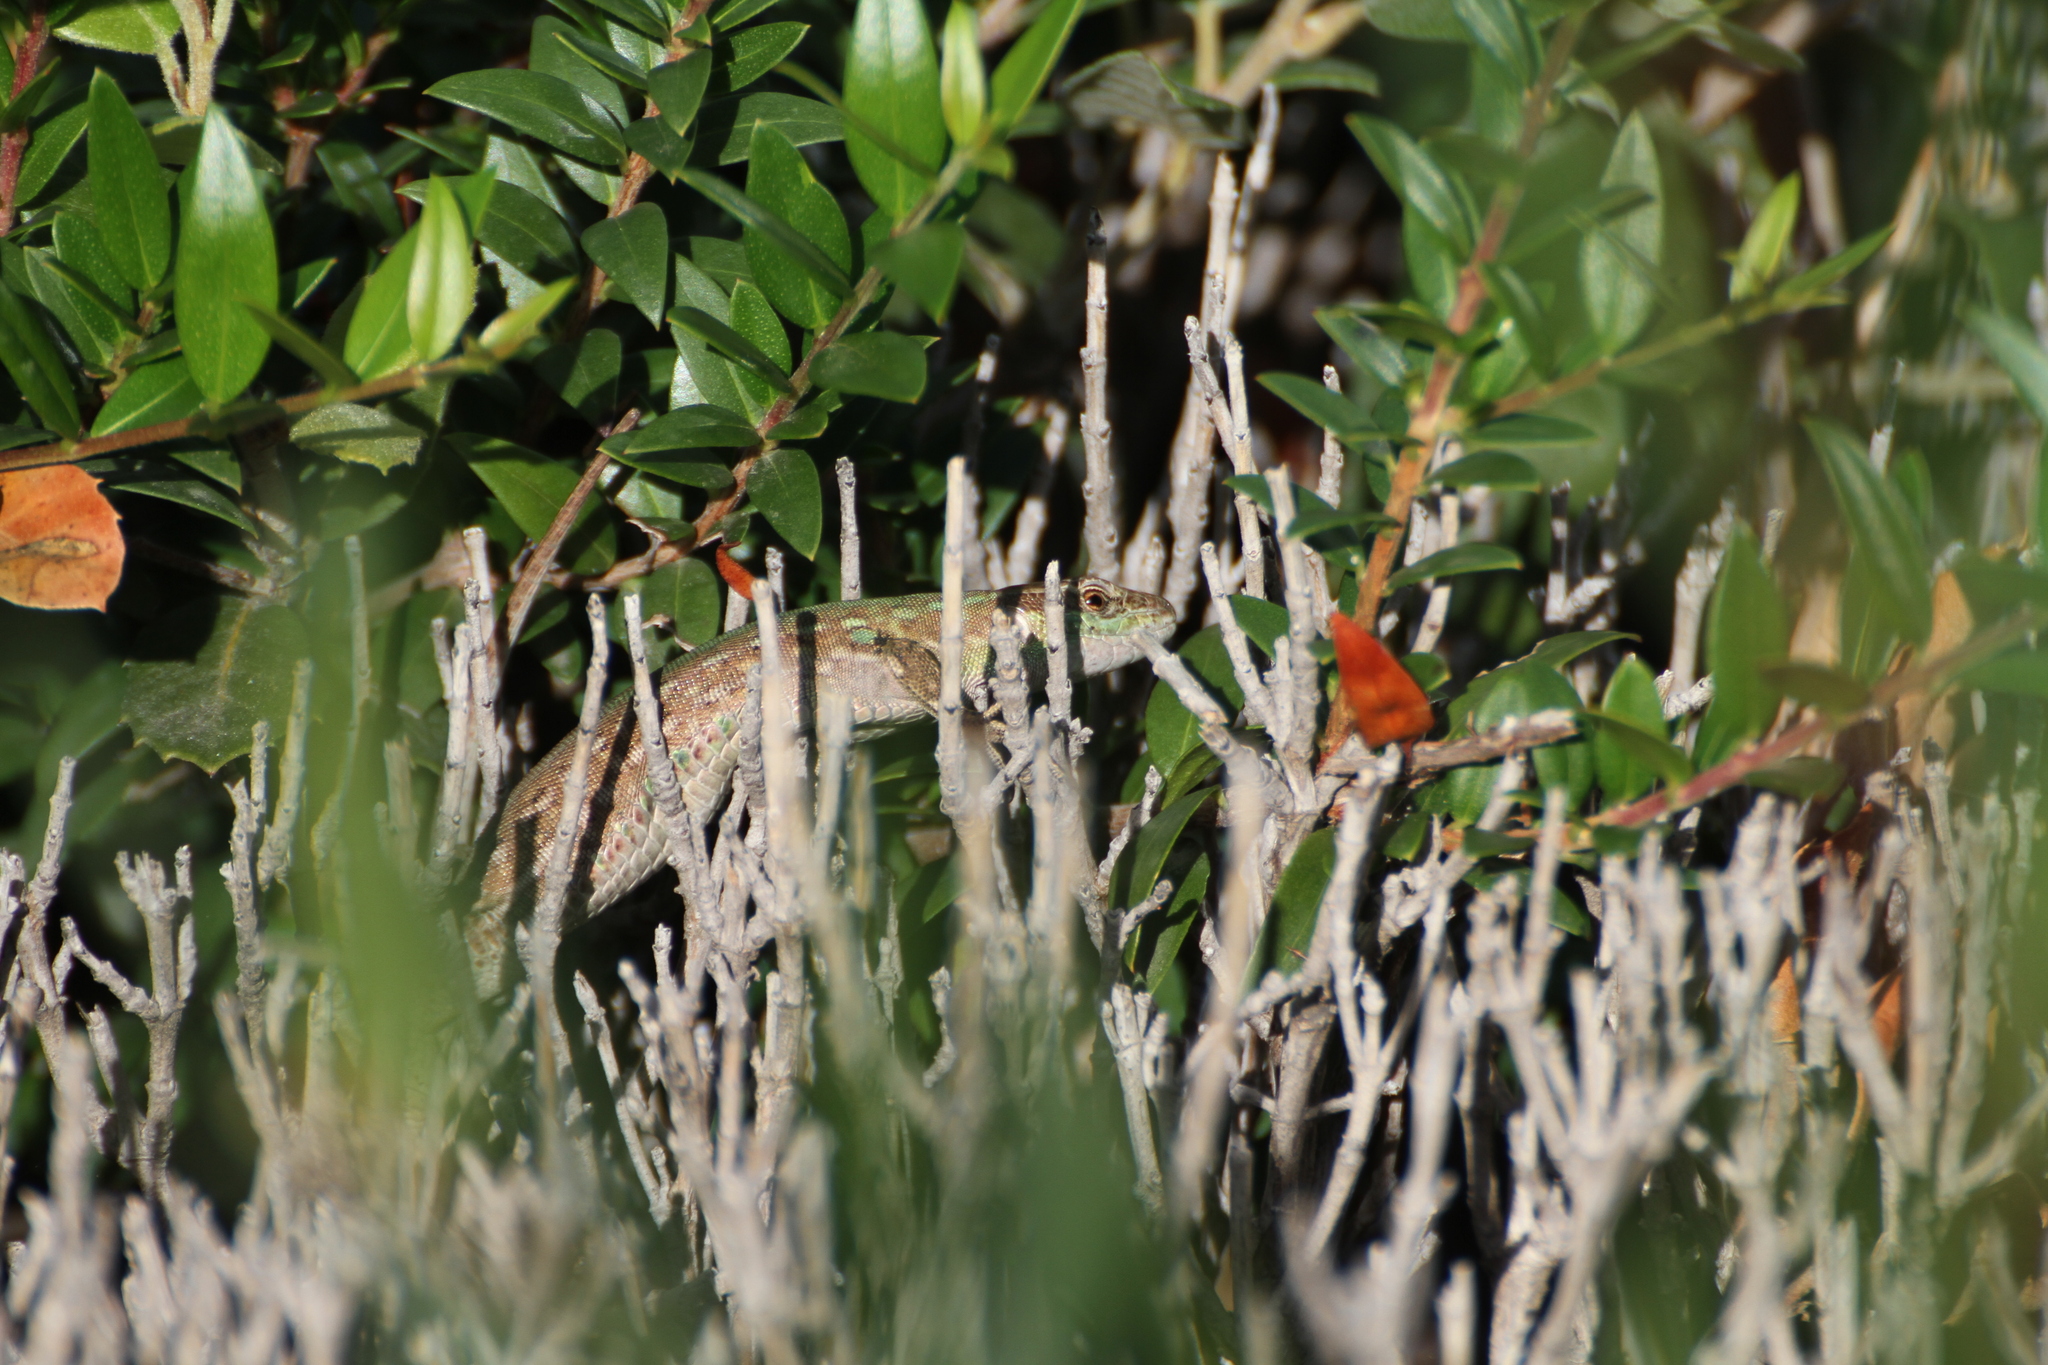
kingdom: Animalia
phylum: Chordata
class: Squamata
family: Lacertidae
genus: Podarcis
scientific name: Podarcis siculus
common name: Italian wall lizard
